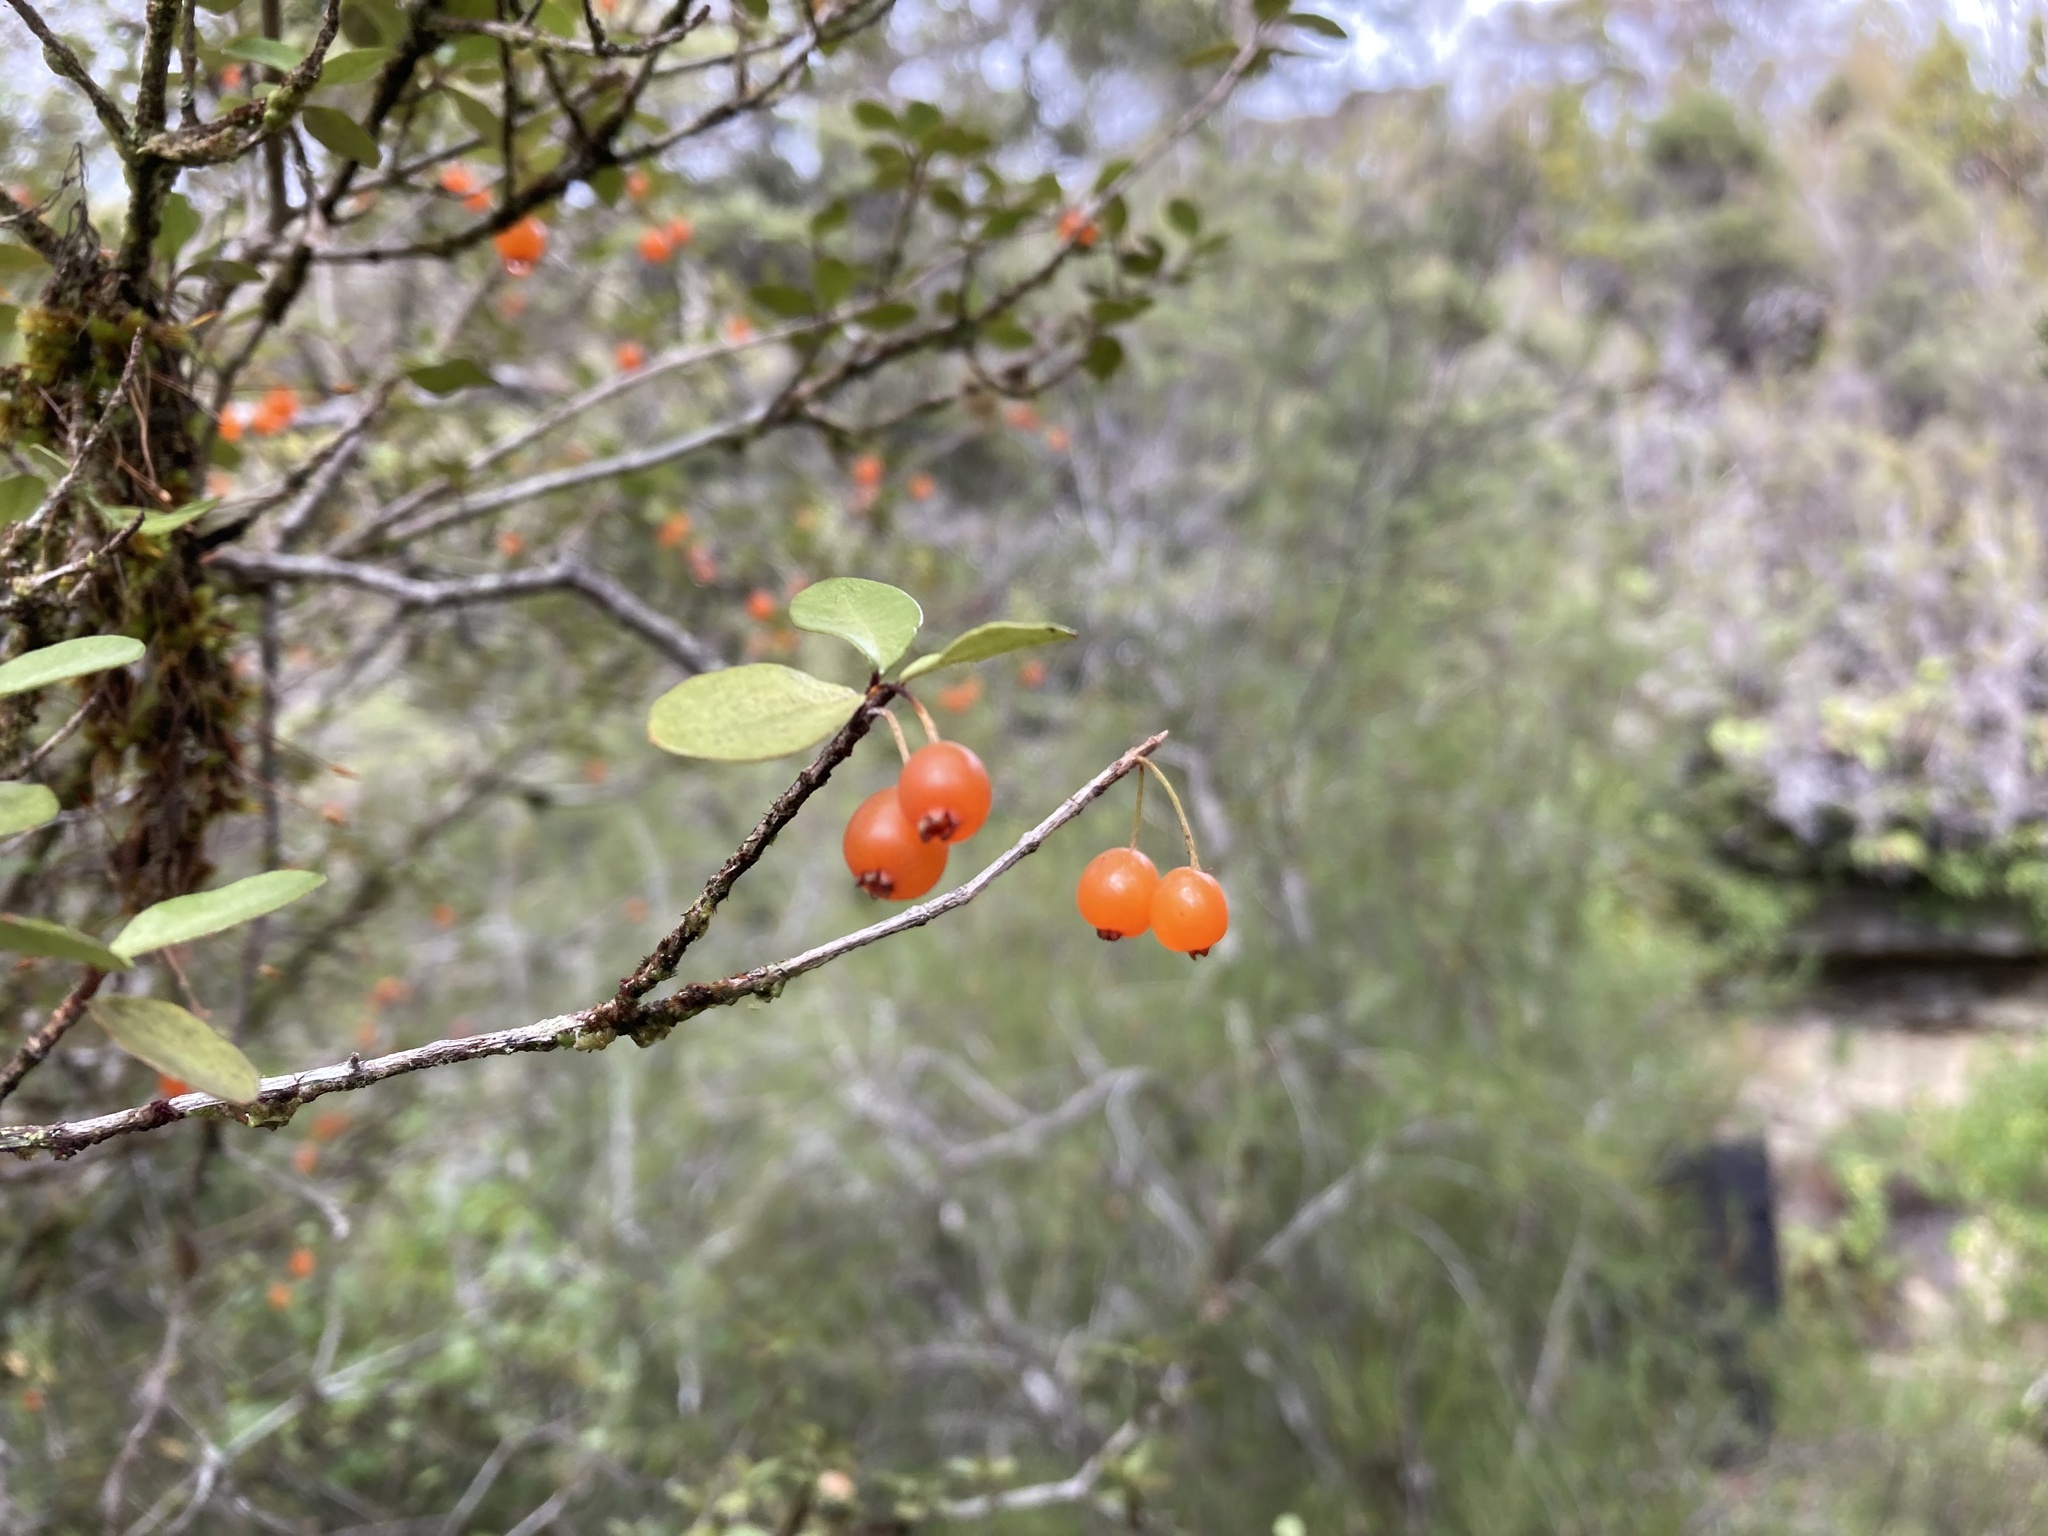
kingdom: Plantae
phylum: Tracheophyta
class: Magnoliopsida
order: Myrtales
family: Myrtaceae
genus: Neomyrtus
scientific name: Neomyrtus pedunculata
